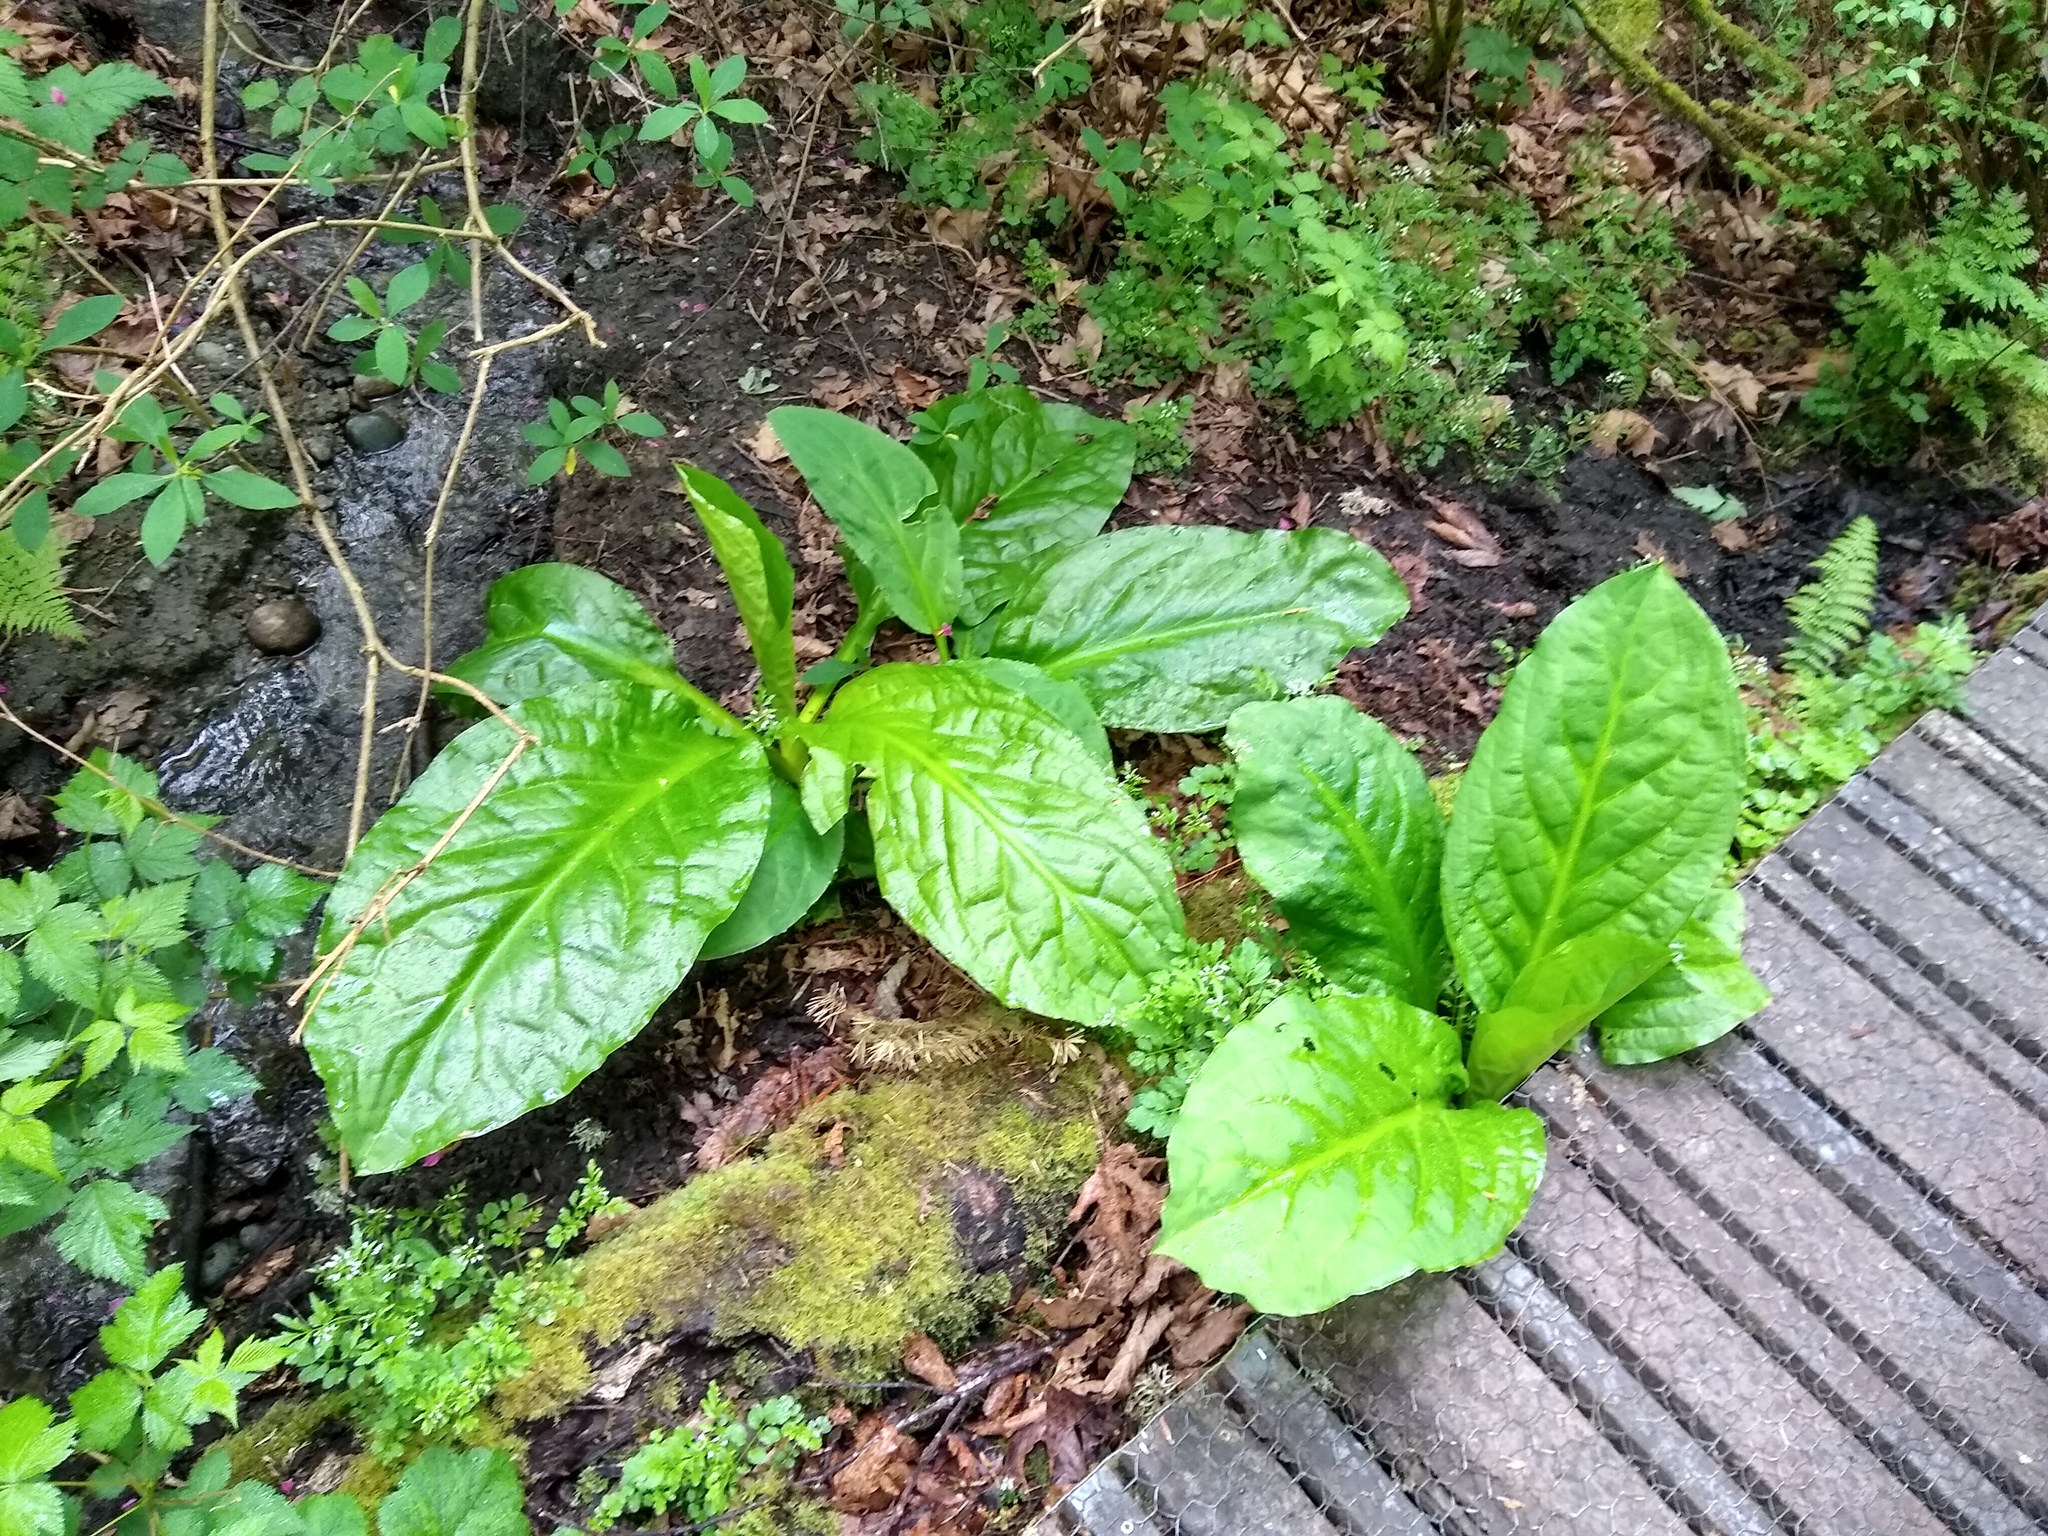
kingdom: Plantae
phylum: Tracheophyta
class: Liliopsida
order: Alismatales
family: Araceae
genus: Lysichiton
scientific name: Lysichiton americanus
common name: American skunk cabbage
